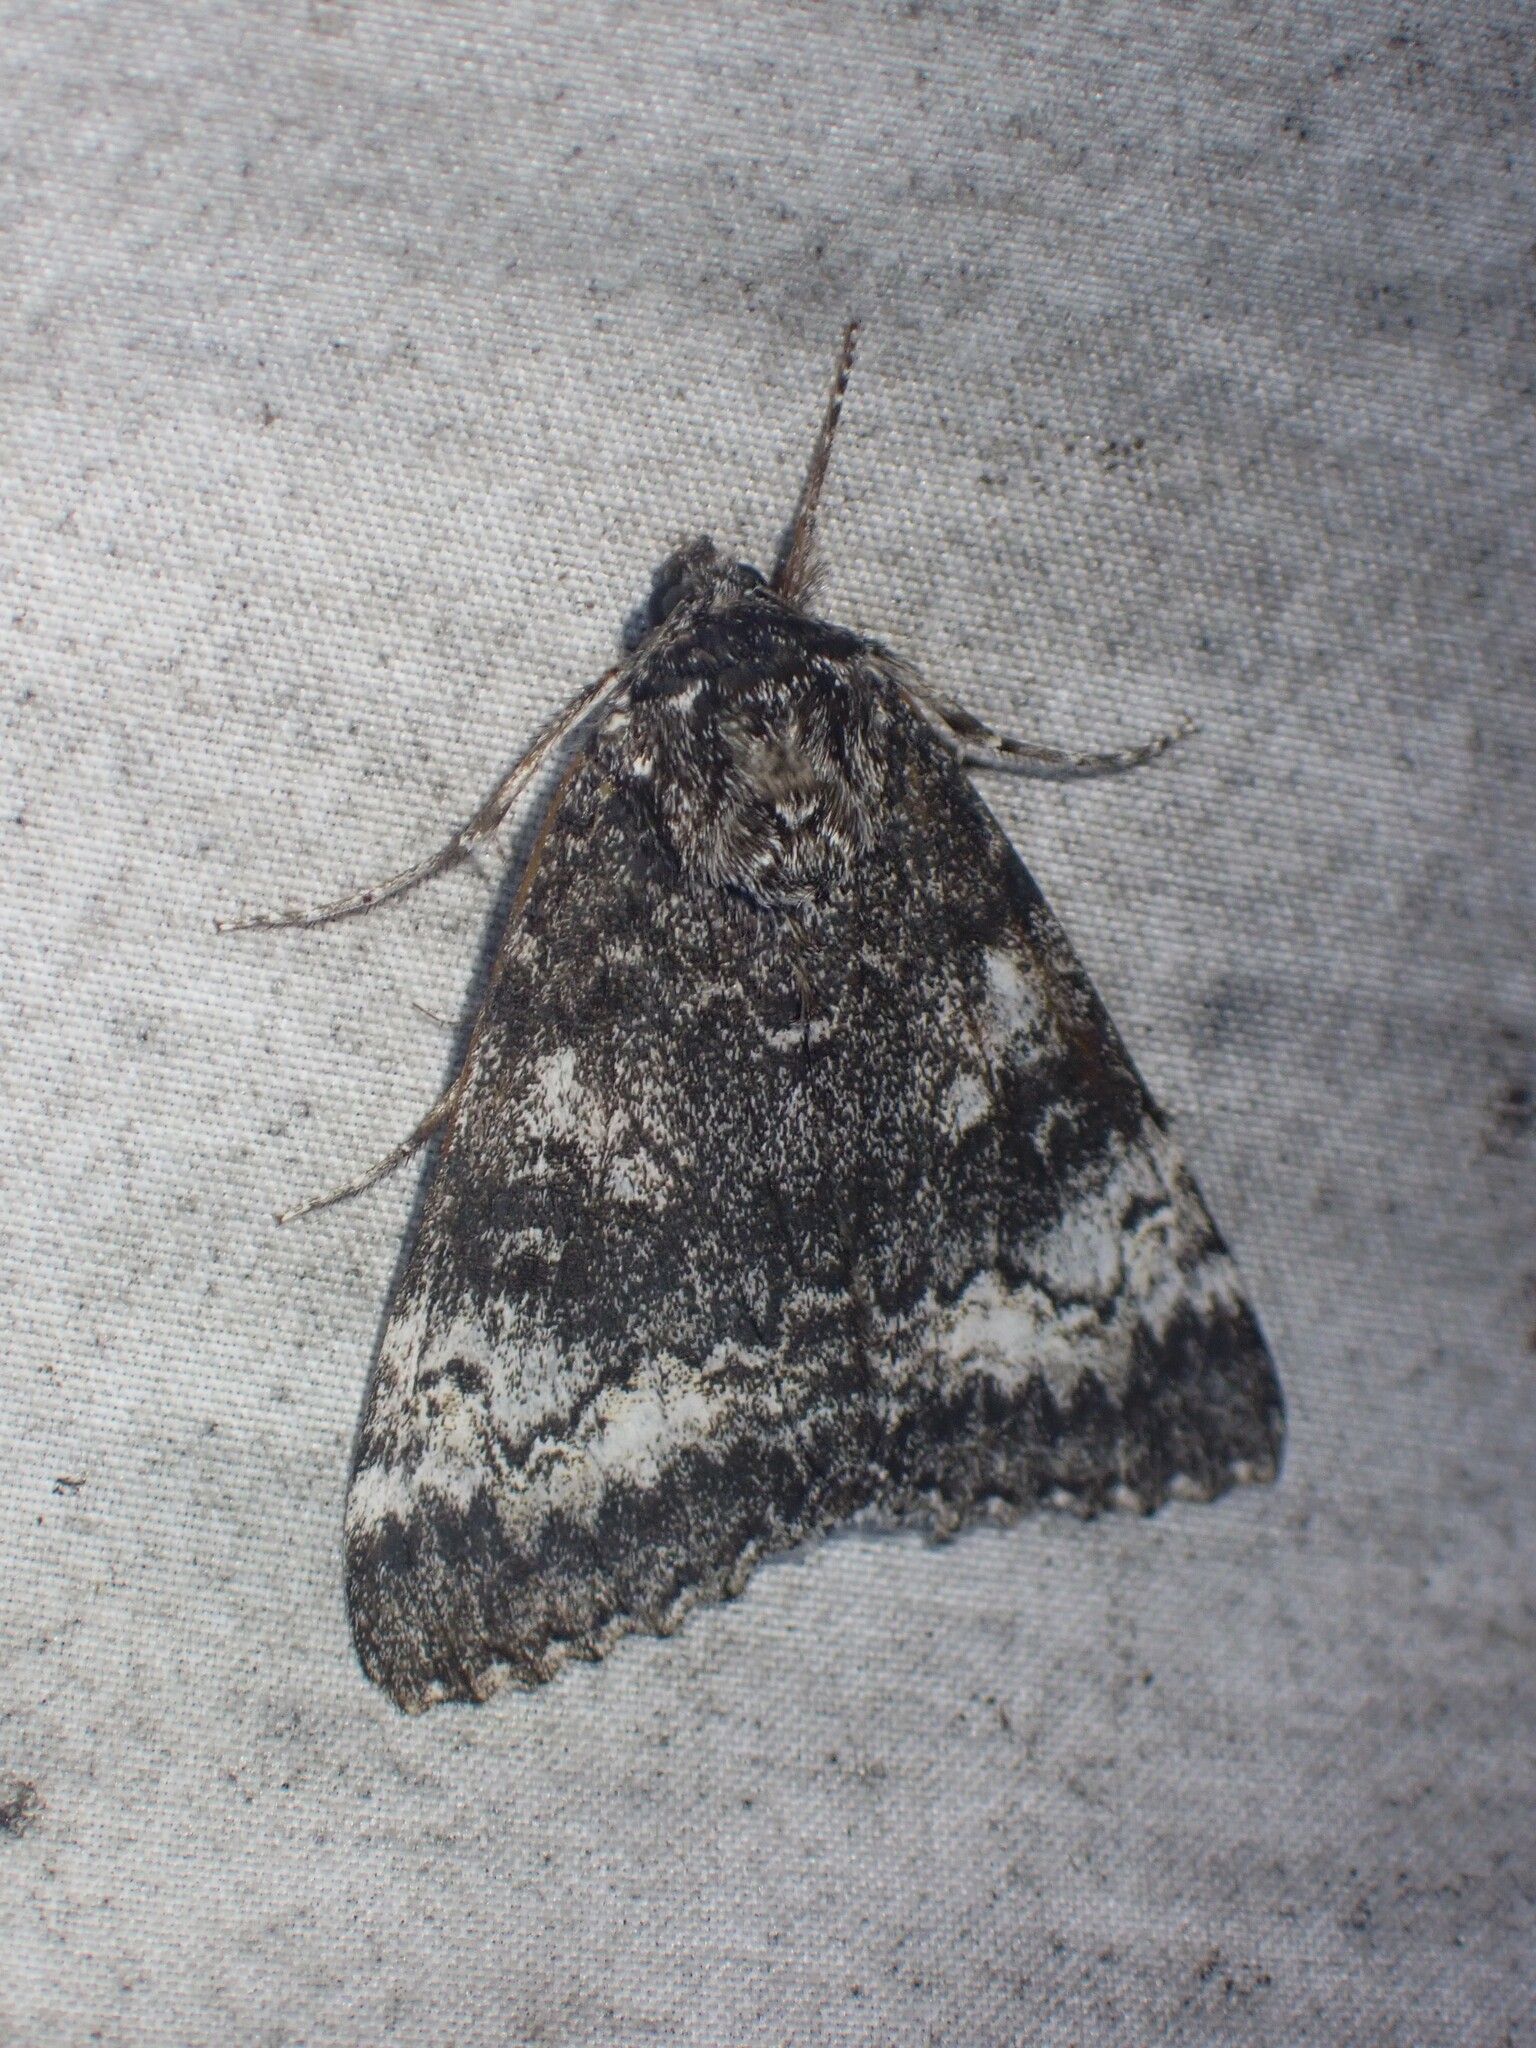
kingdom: Animalia
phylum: Arthropoda
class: Insecta
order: Lepidoptera
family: Erebidae
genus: Catocala
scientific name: Catocala briseis
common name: Briseis underwing
